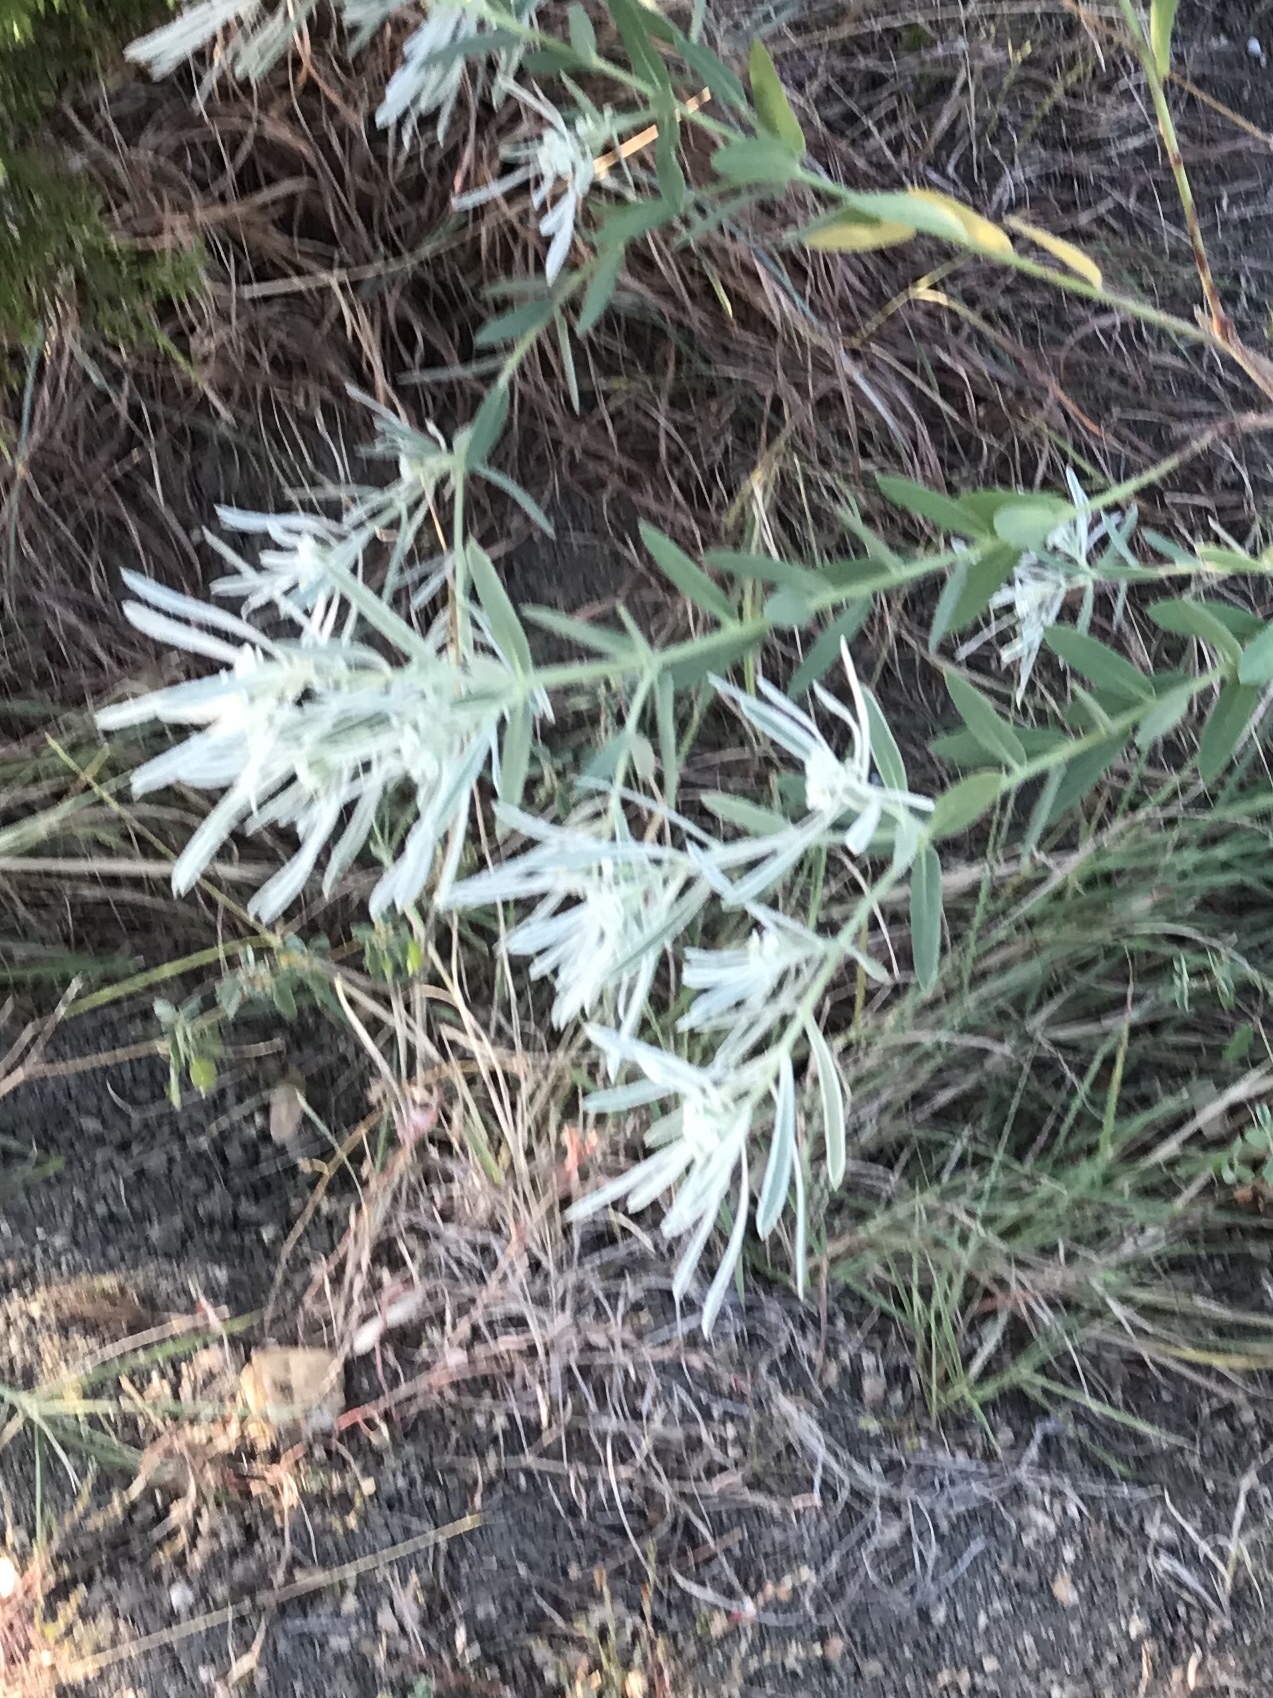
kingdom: Plantae
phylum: Tracheophyta
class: Magnoliopsida
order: Malpighiales
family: Euphorbiaceae
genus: Euphorbia
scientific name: Euphorbia bicolor
